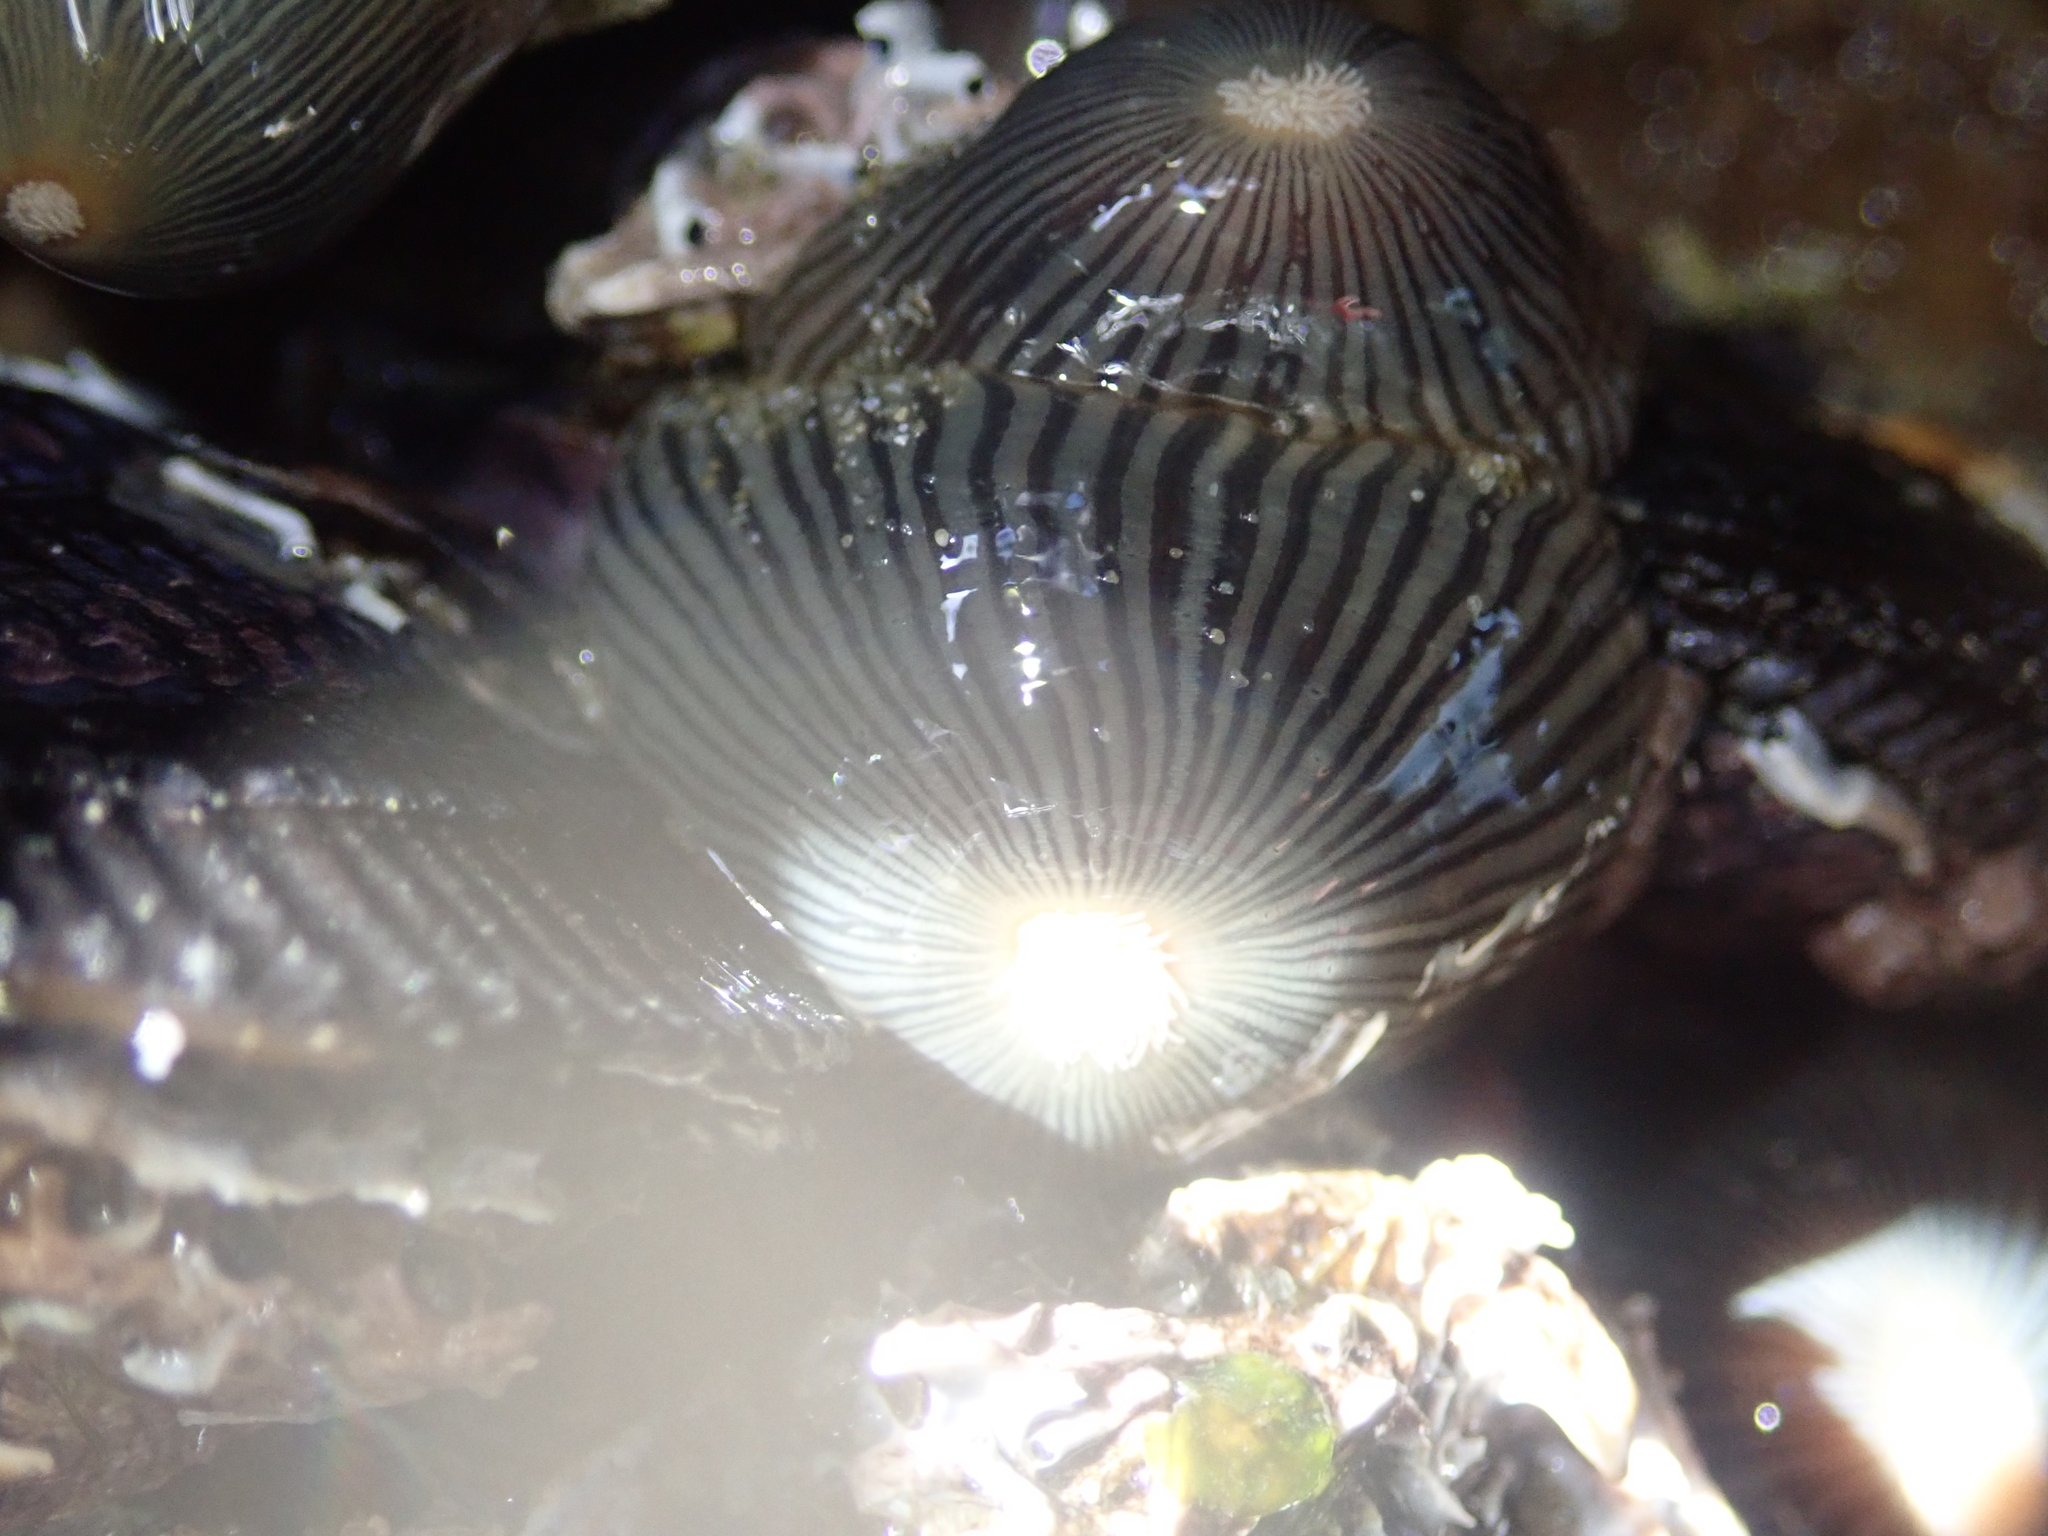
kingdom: Animalia
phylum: Cnidaria
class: Anthozoa
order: Actiniaria
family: Diadumenidae
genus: Diadumene
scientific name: Diadumene neozelanica
